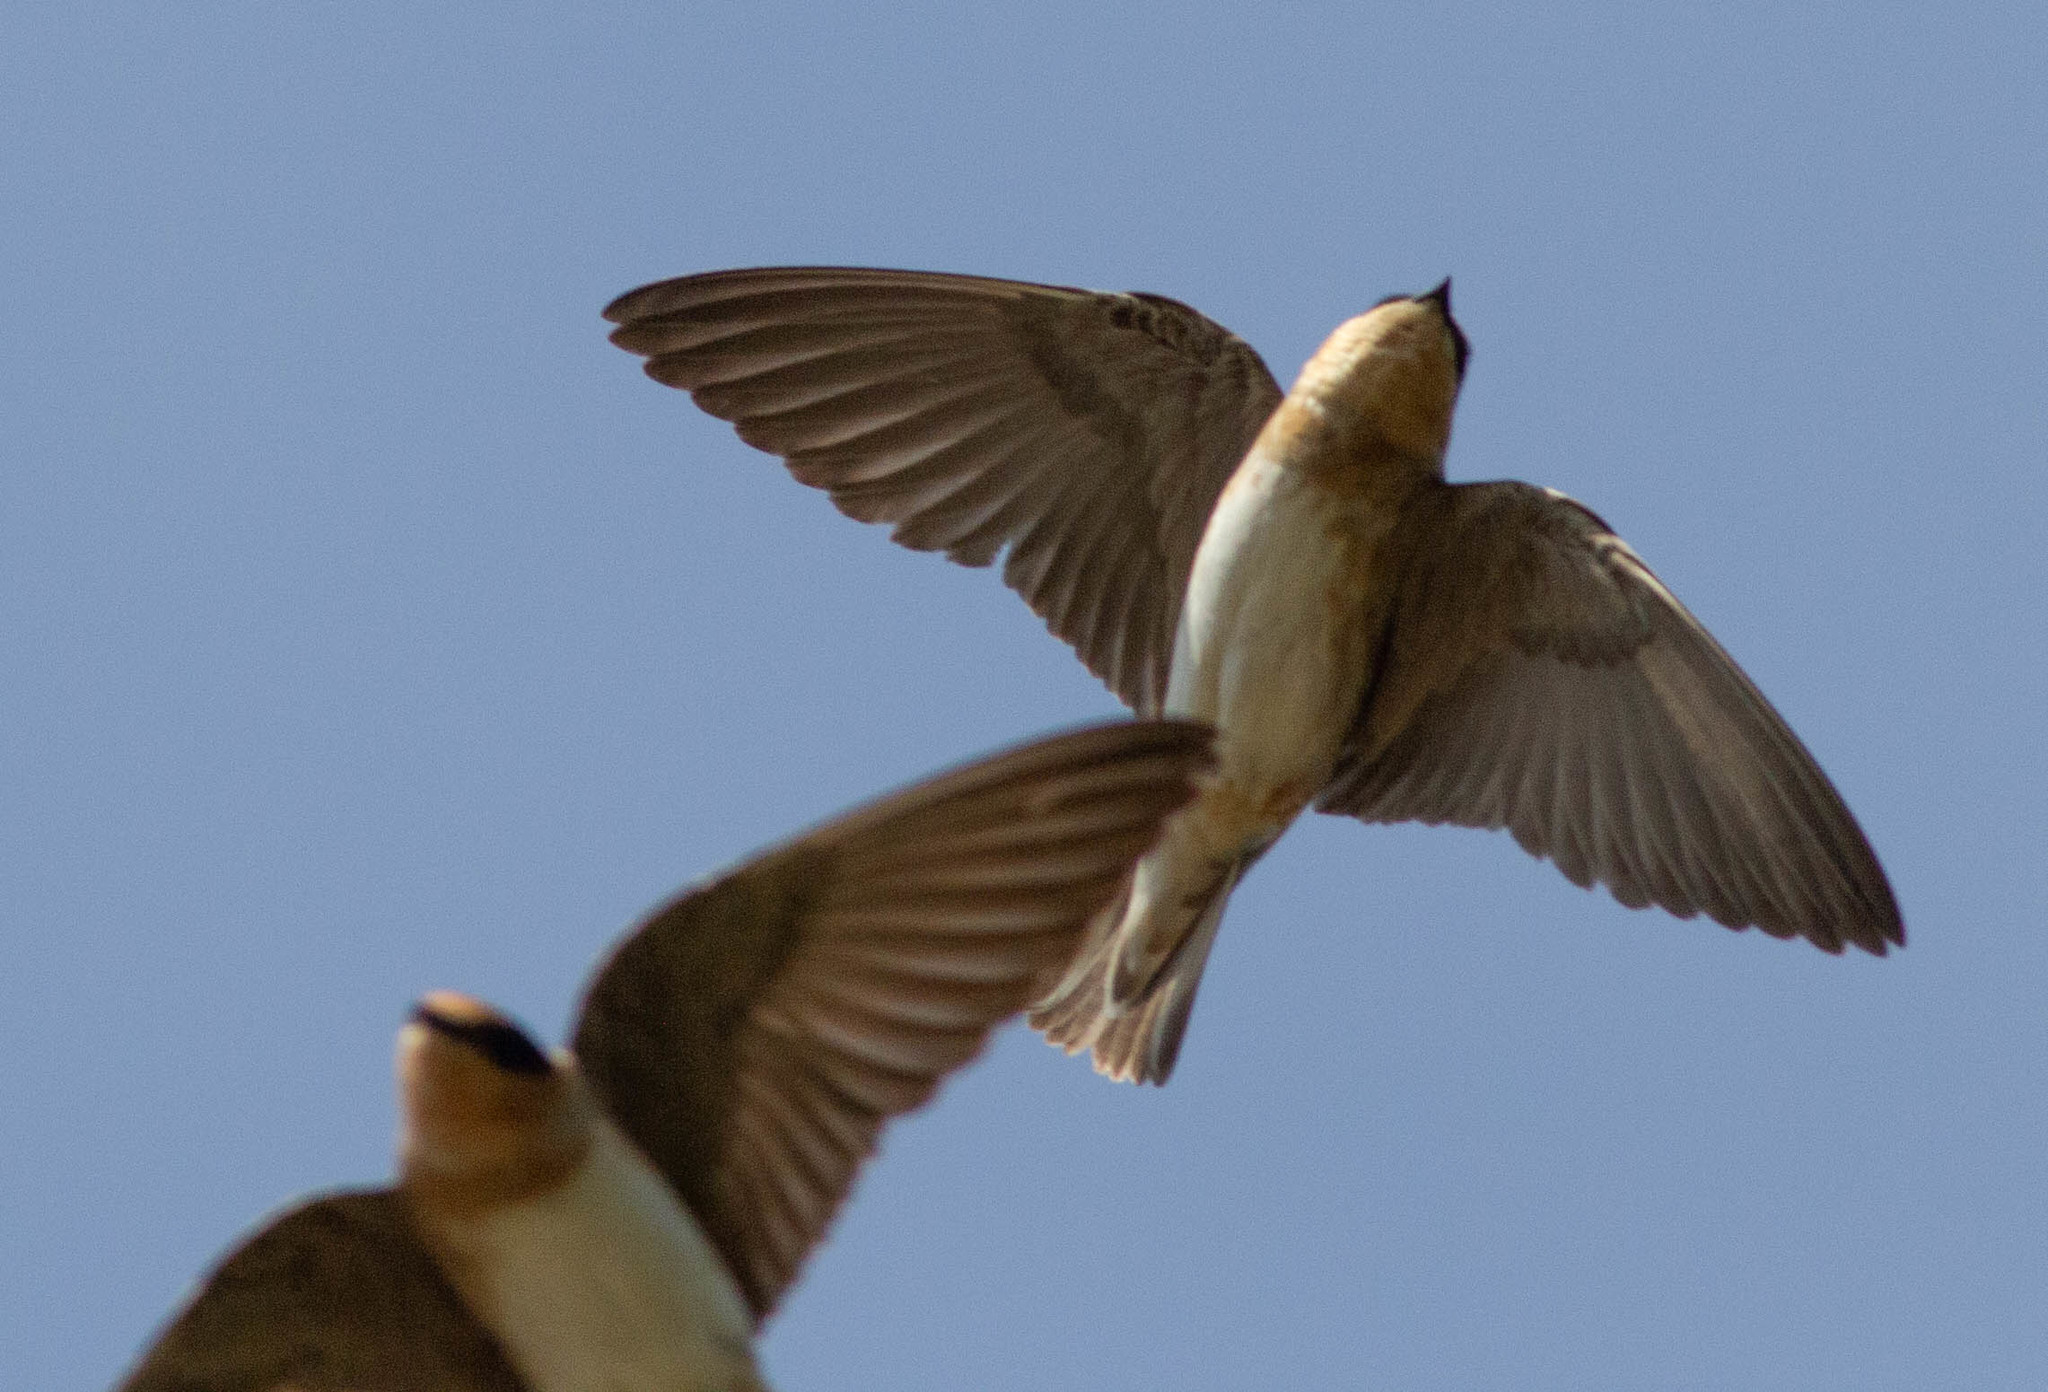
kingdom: Animalia
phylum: Chordata
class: Aves
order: Passeriformes
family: Hirundinidae
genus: Petrochelidon
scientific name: Petrochelidon fulva
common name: Cave swallow
